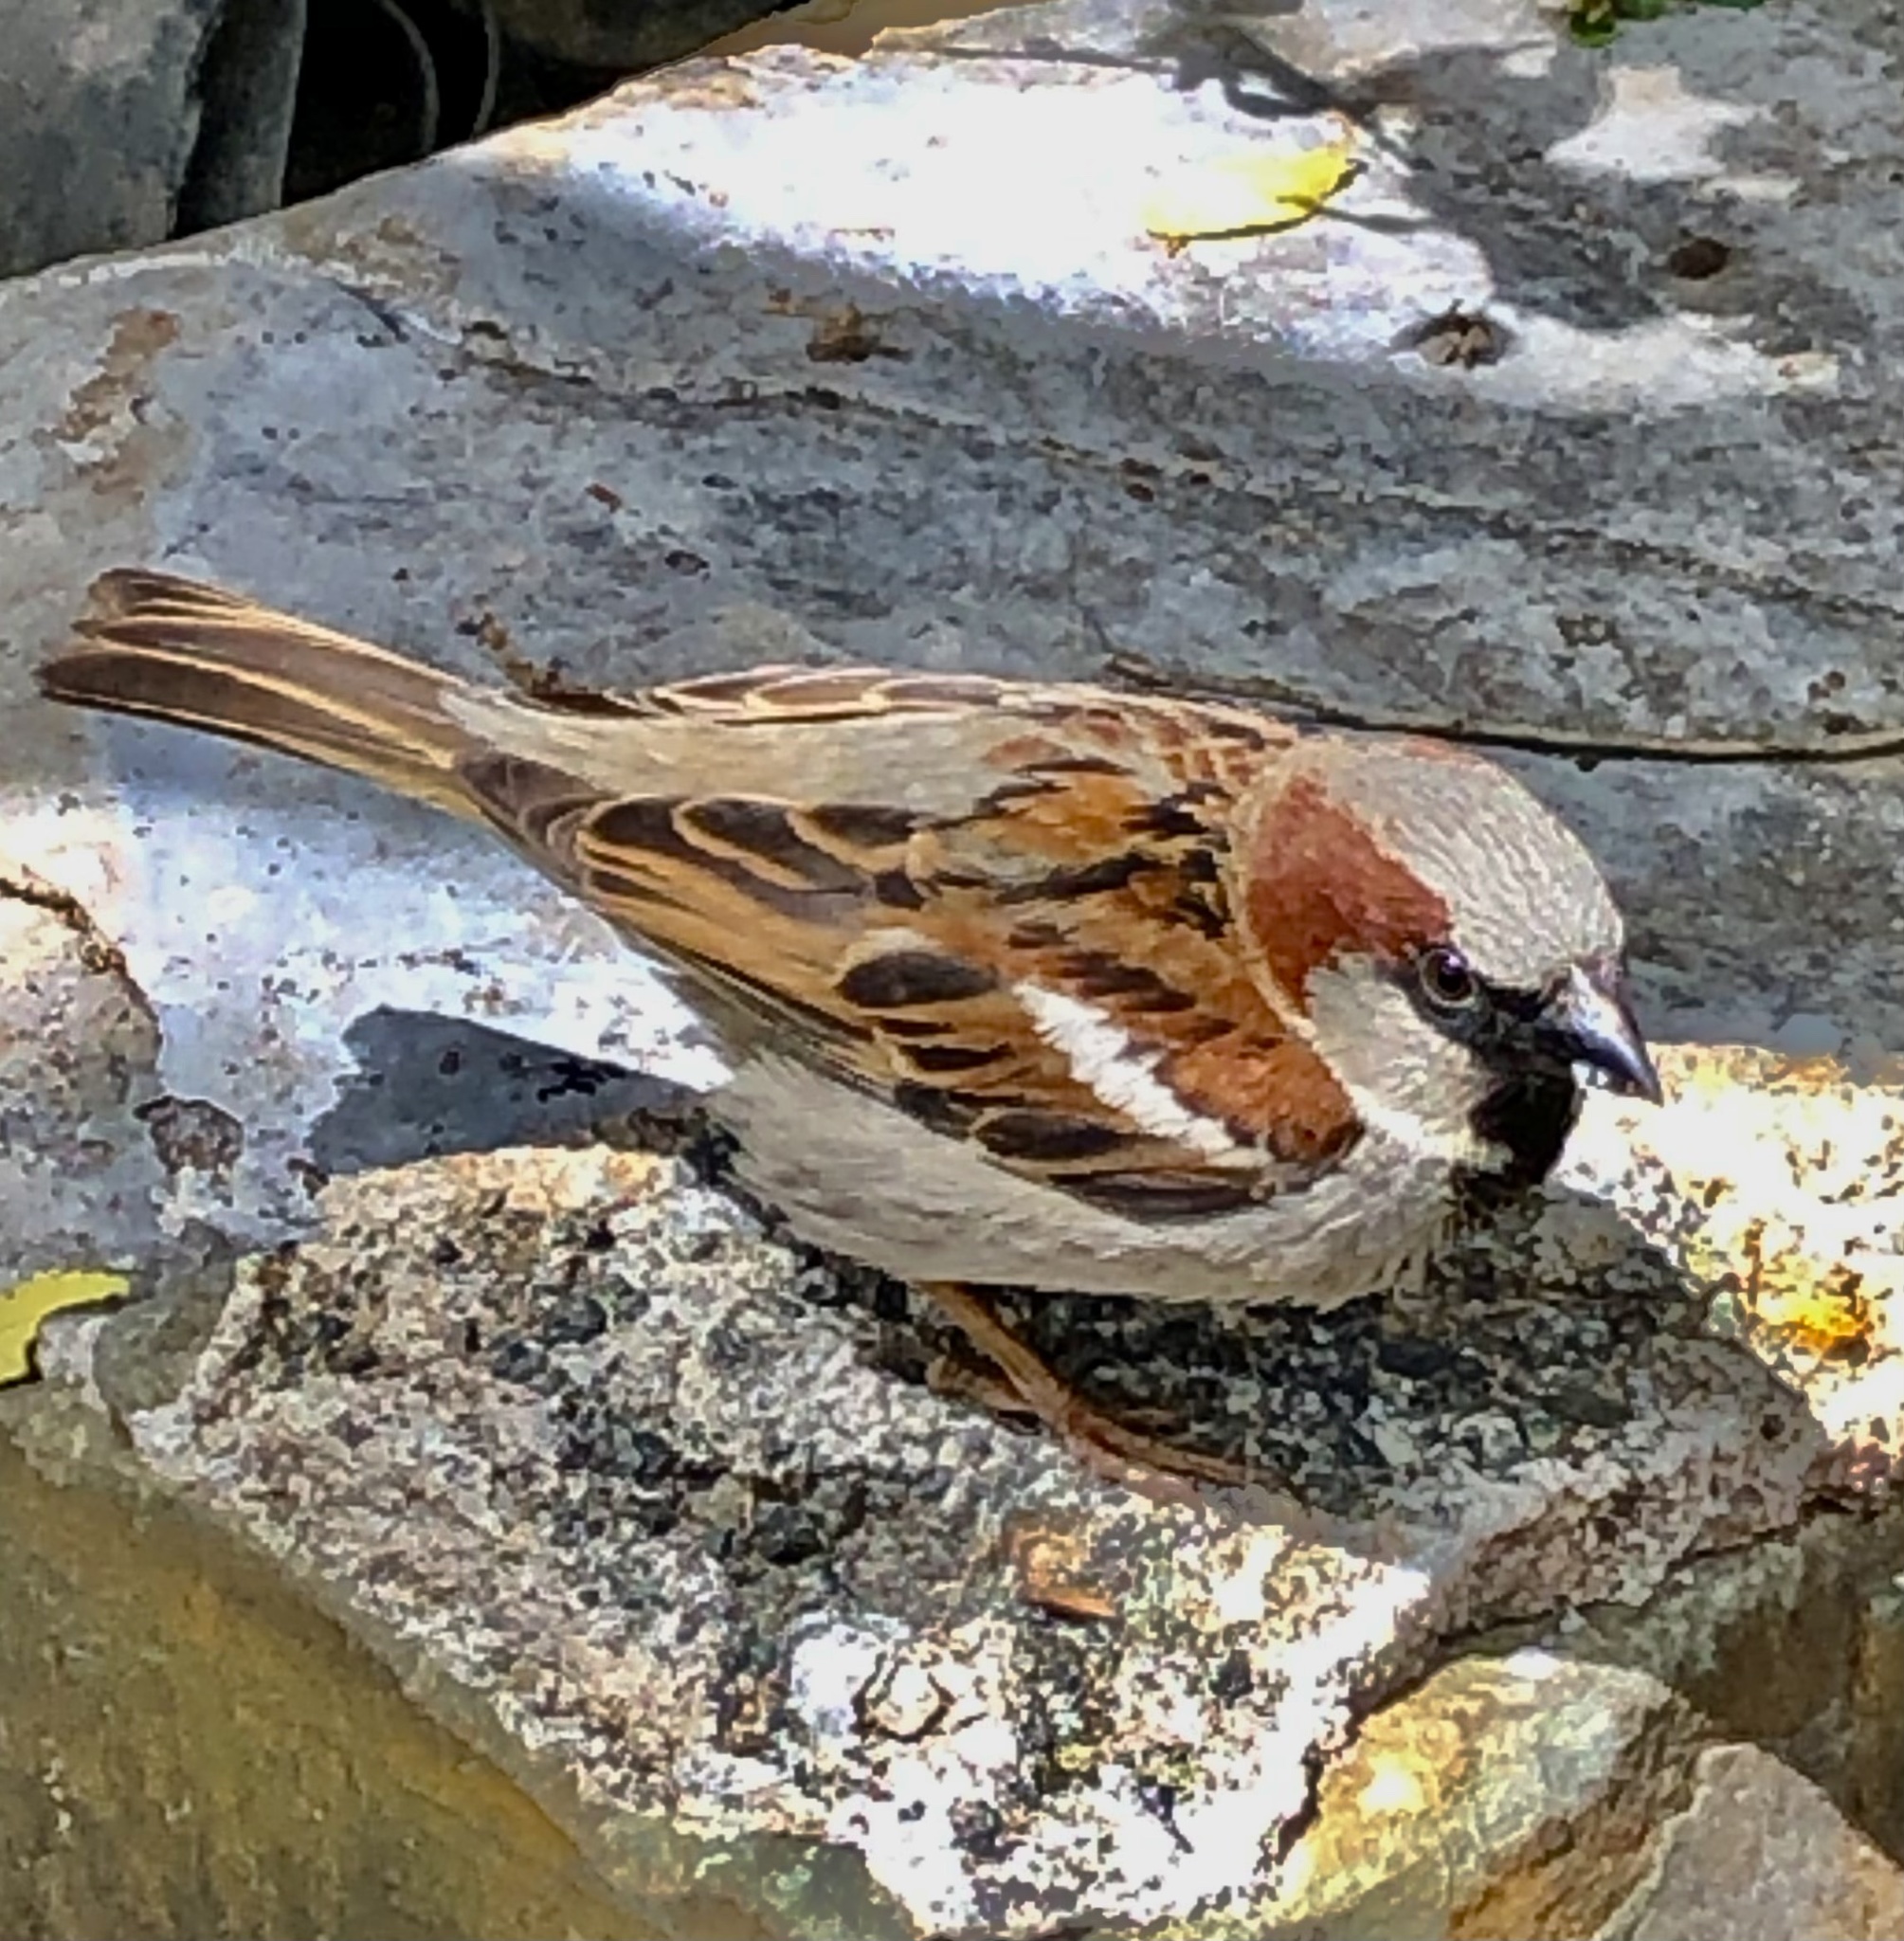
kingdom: Animalia
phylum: Chordata
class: Aves
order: Passeriformes
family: Passeridae
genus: Passer
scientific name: Passer domesticus
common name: House sparrow
